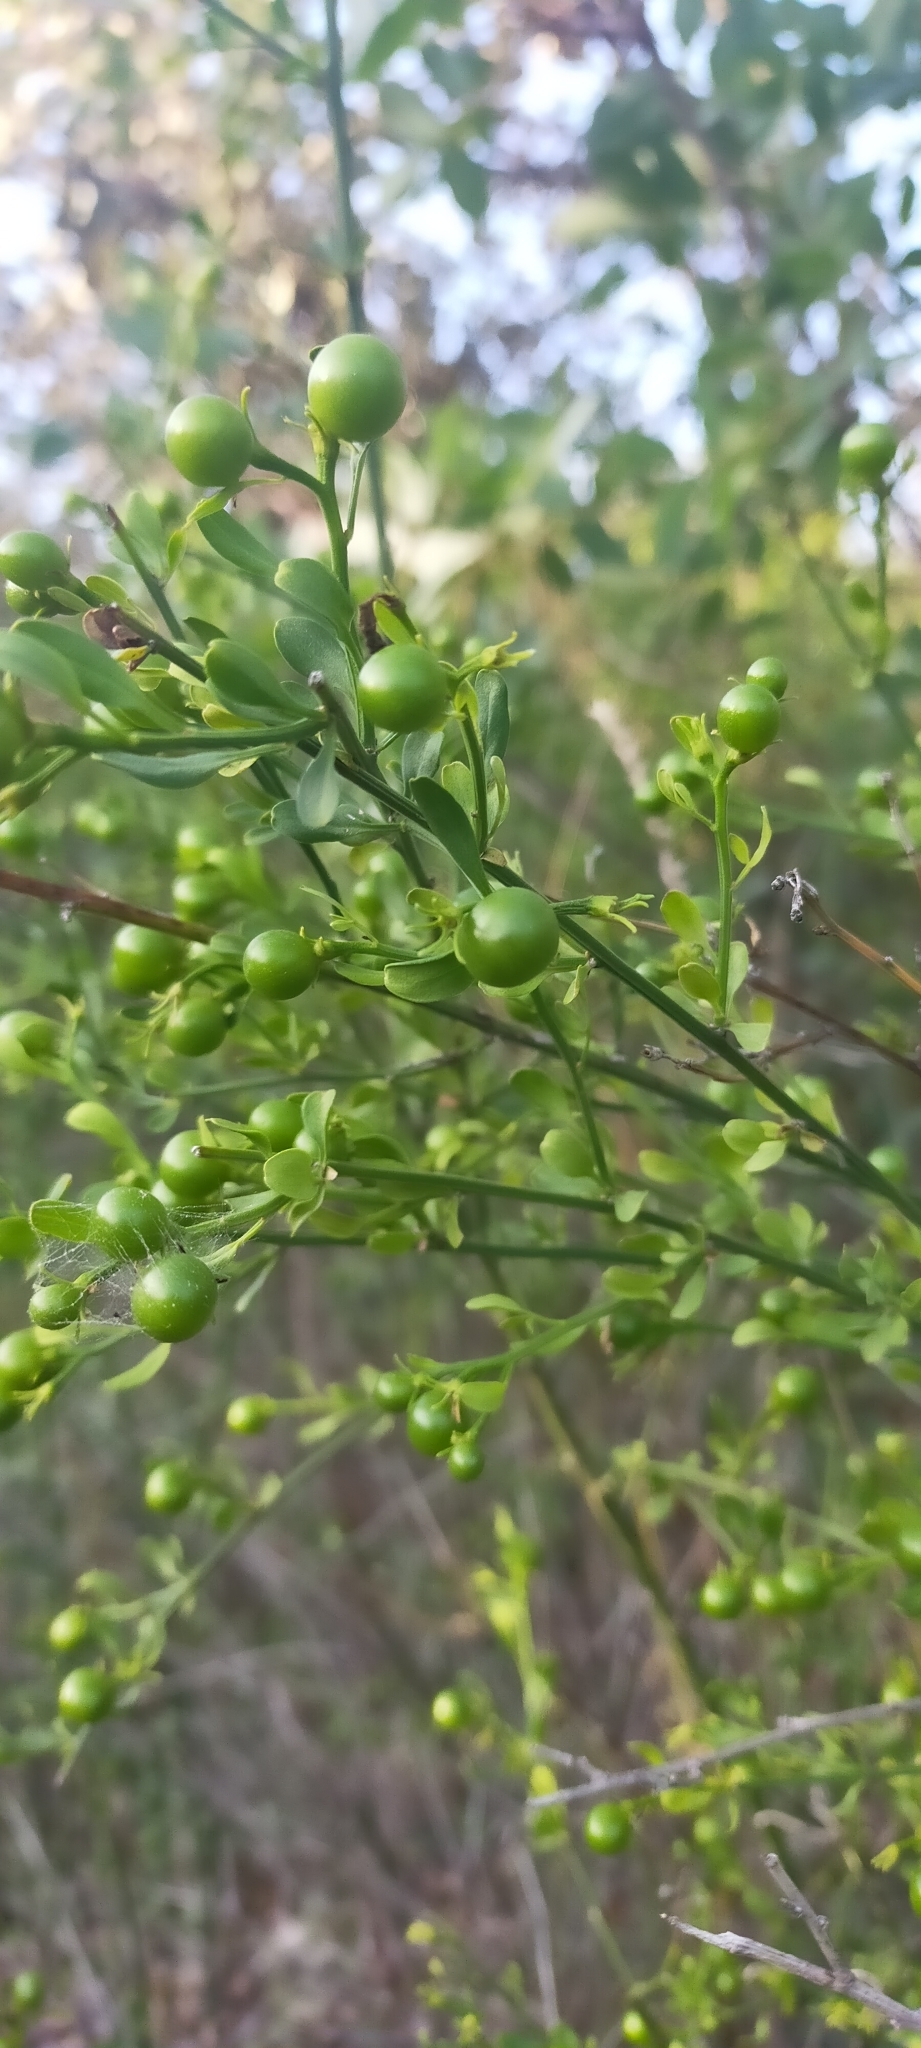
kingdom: Plantae
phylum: Tracheophyta
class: Magnoliopsida
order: Lamiales
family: Oleaceae
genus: Chrysojasminum
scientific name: Chrysojasminum fruticans
